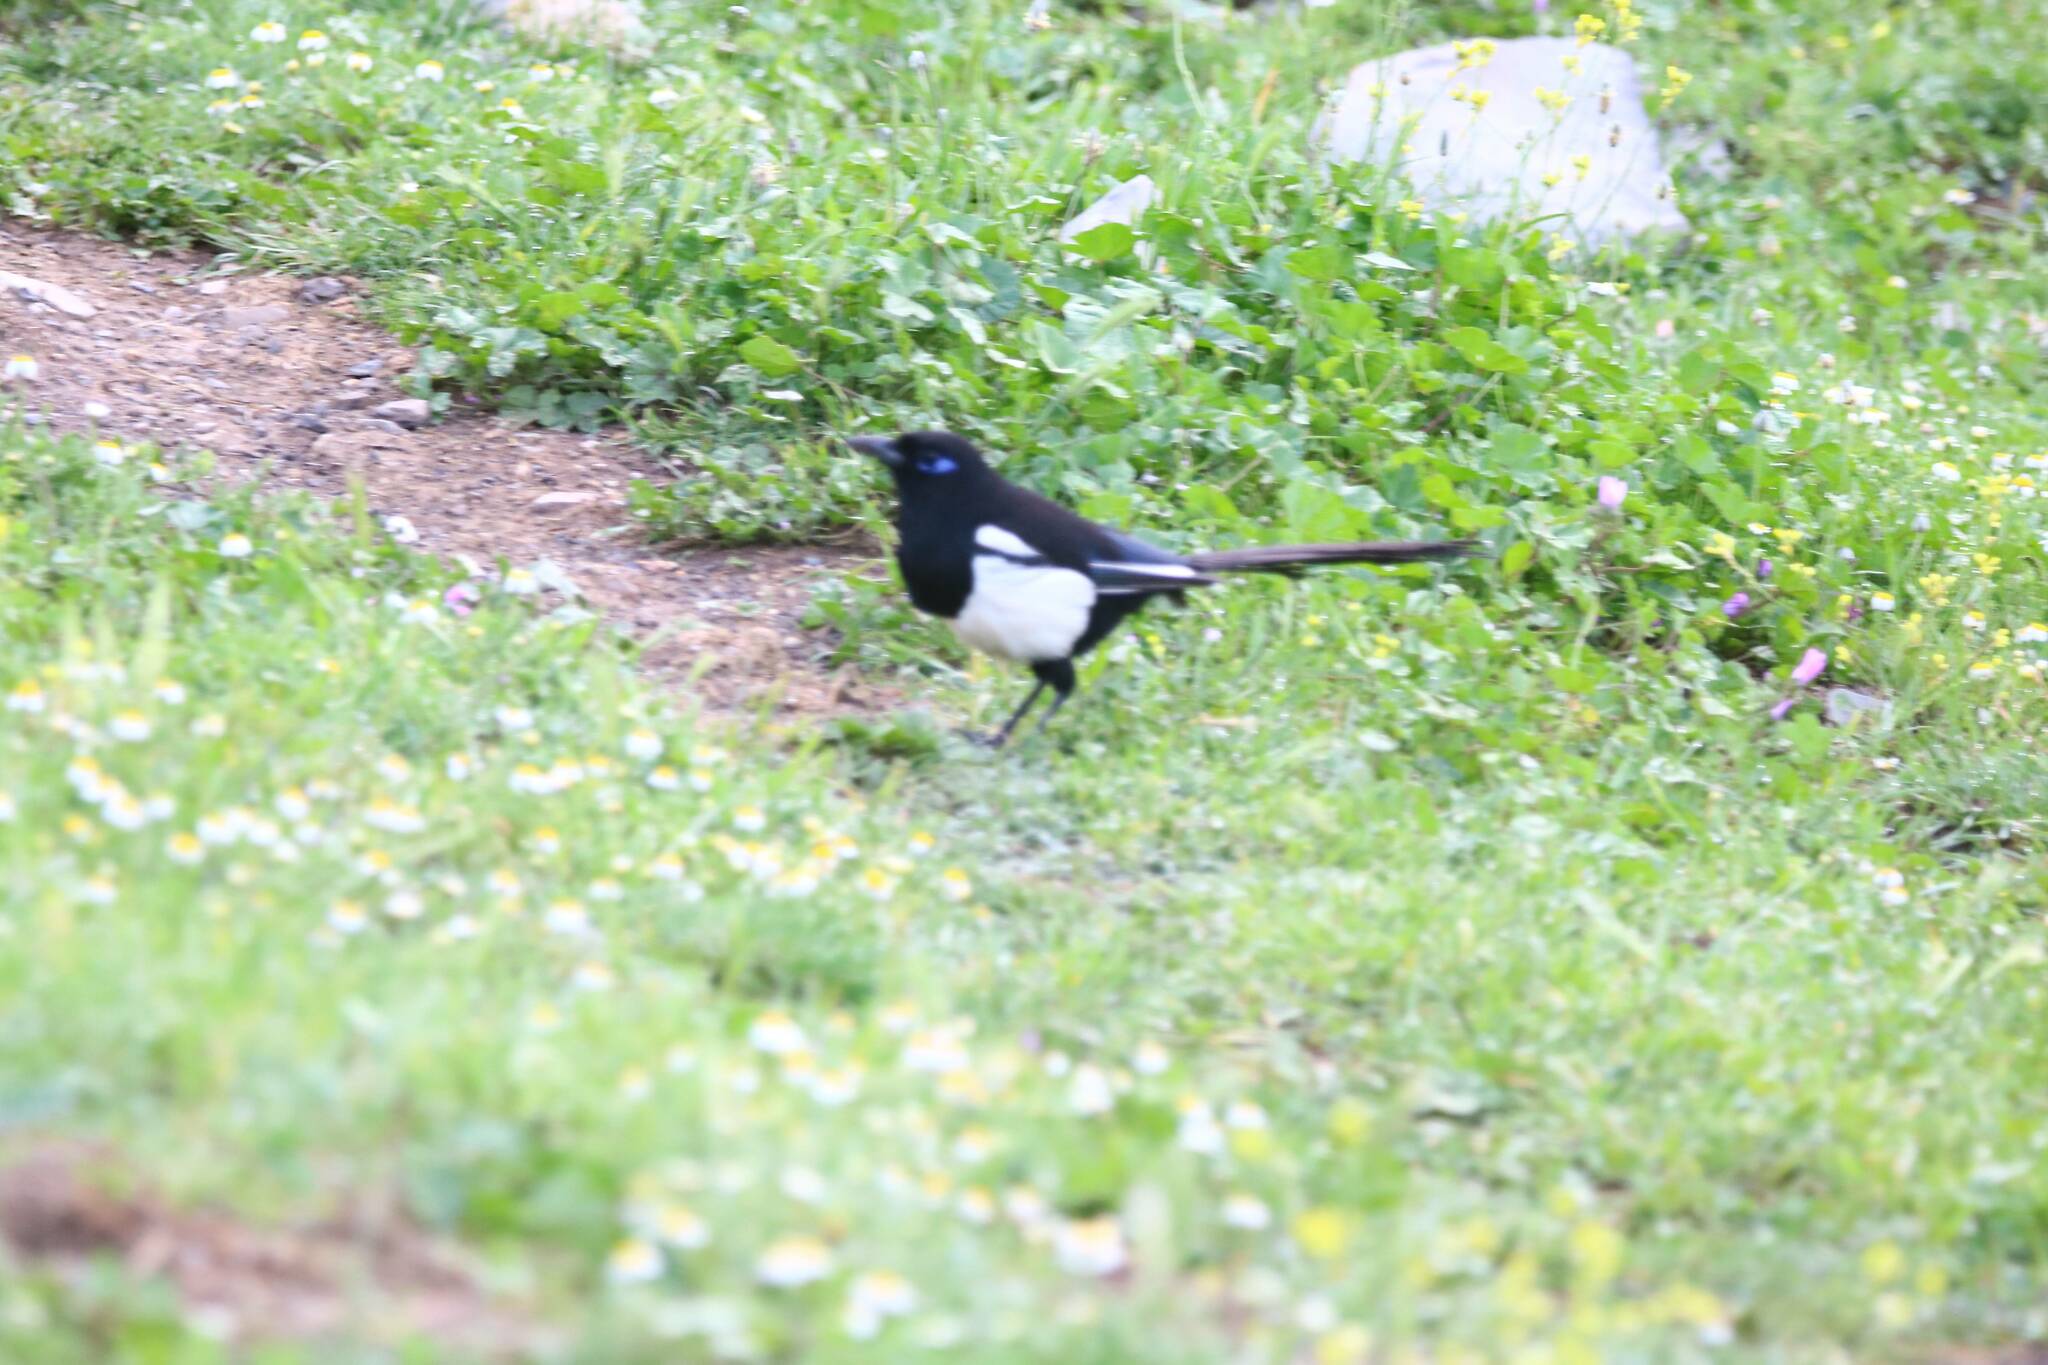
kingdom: Animalia
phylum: Chordata
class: Aves
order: Passeriformes
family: Corvidae
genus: Pica
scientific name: Pica mauritanica
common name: Maghreb magpie
